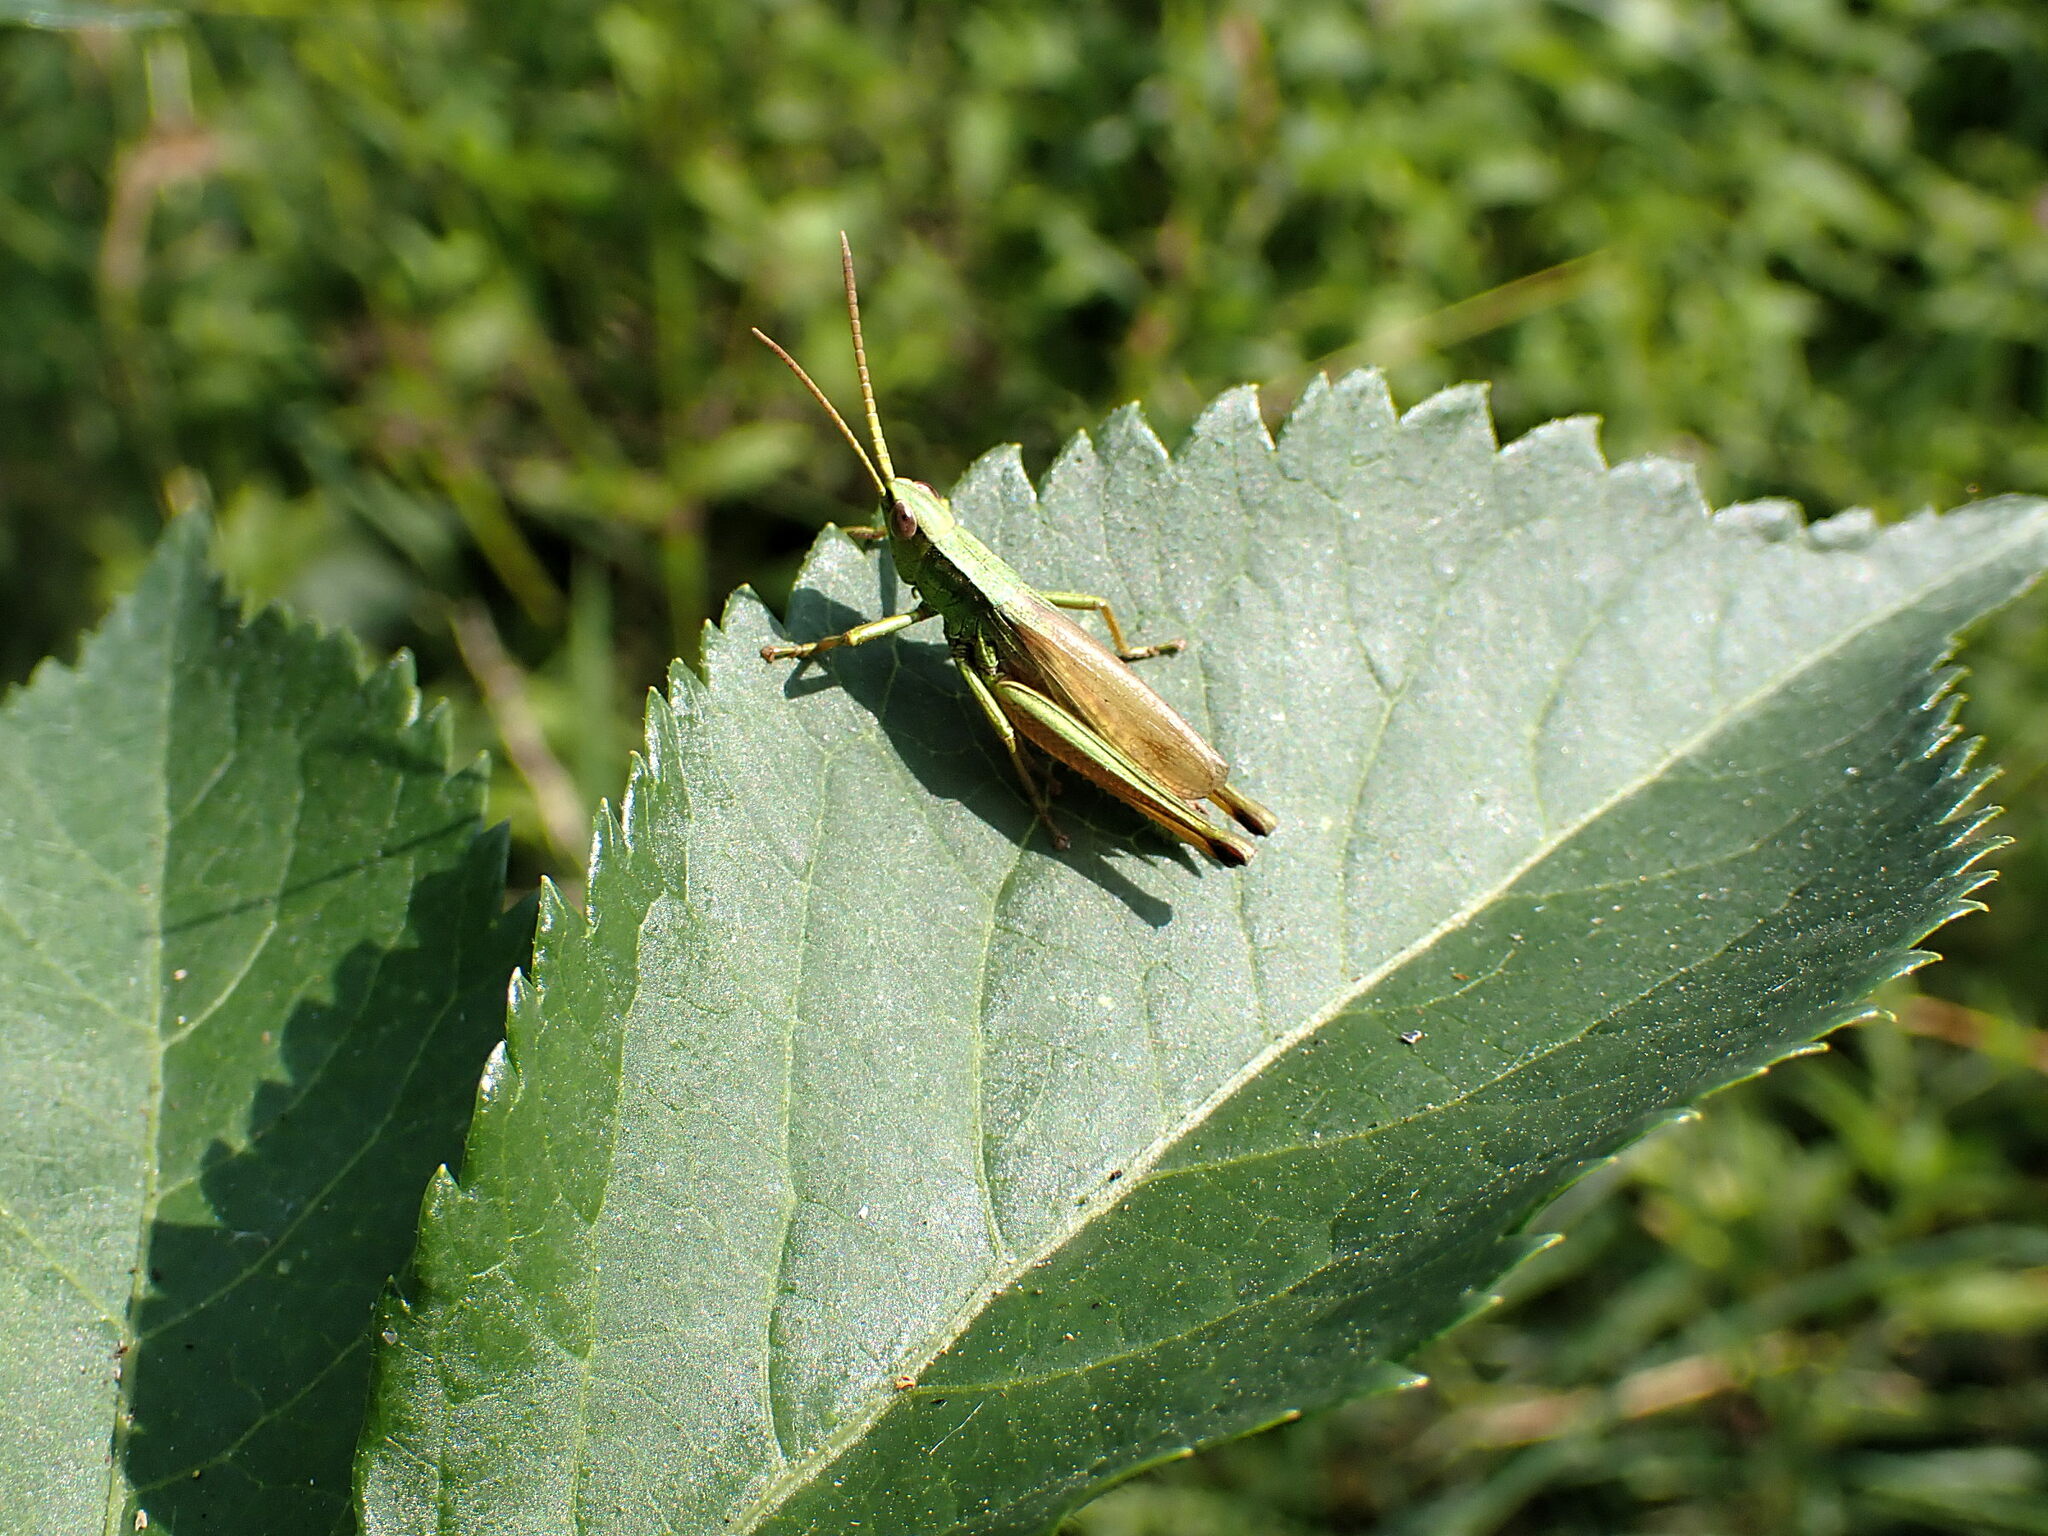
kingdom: Animalia
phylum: Arthropoda
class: Insecta
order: Orthoptera
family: Acrididae
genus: Chrysochraon
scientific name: Chrysochraon dispar
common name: Large gold grasshopper
